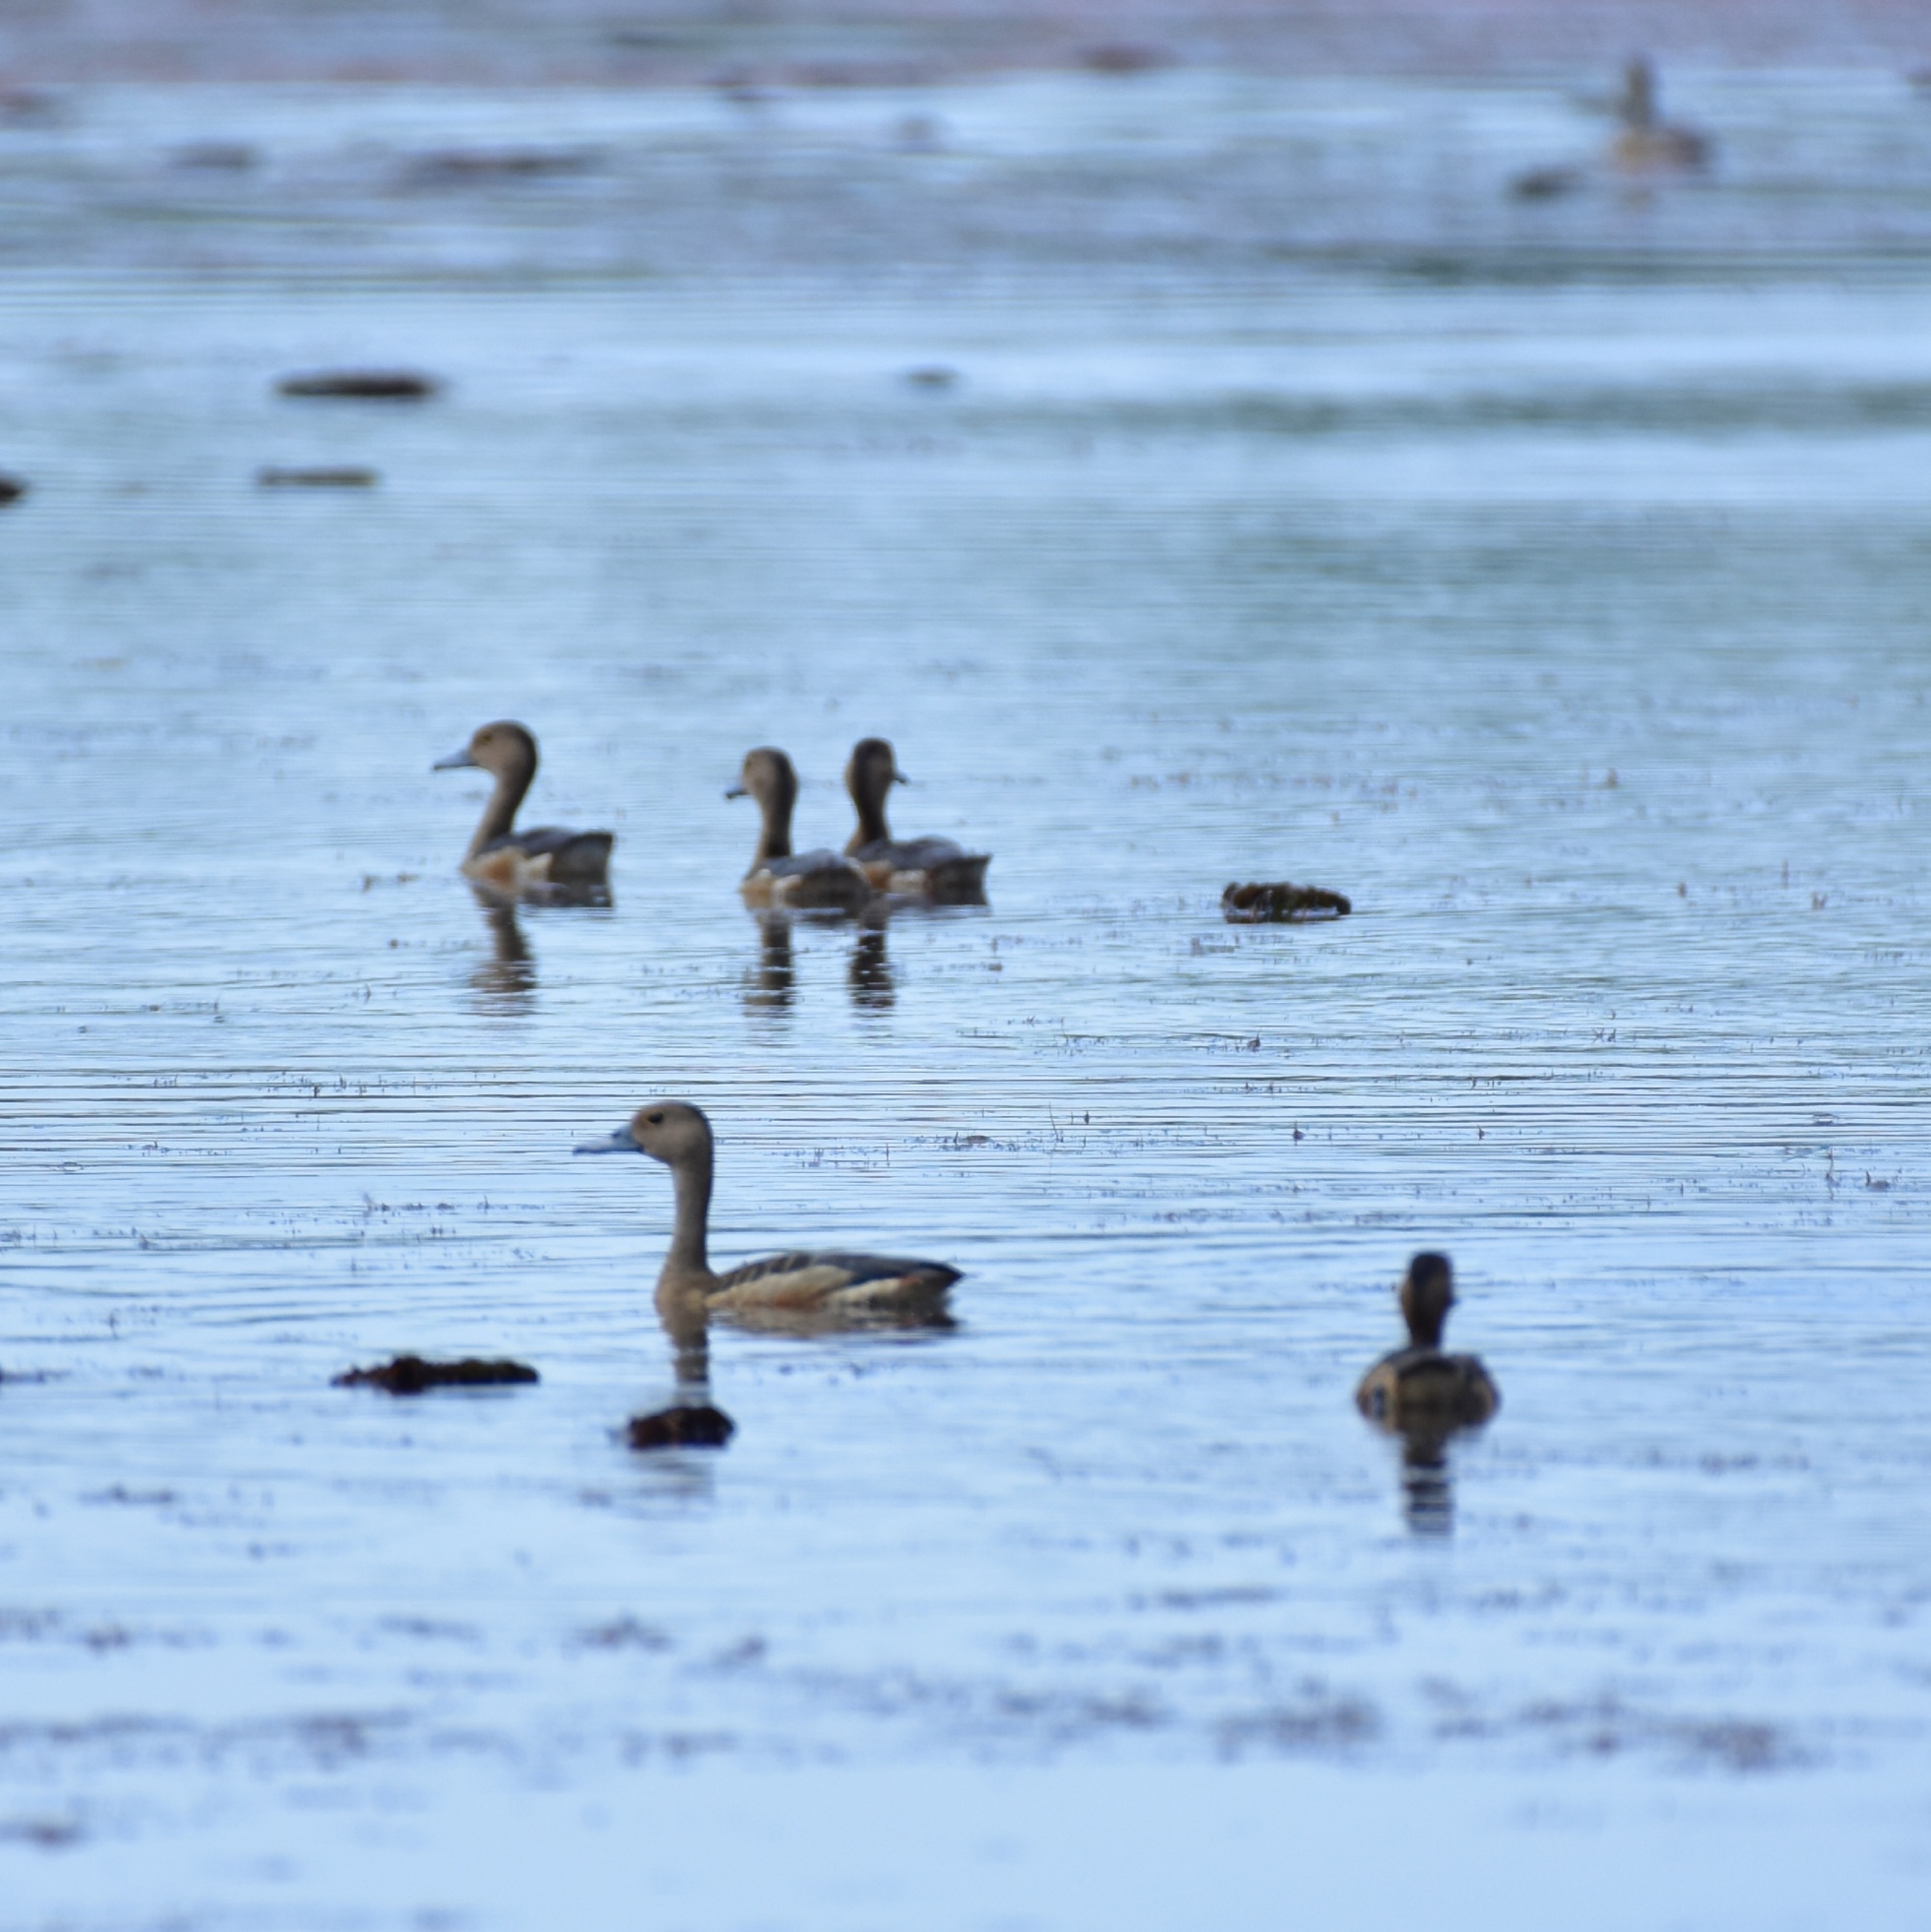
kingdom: Animalia
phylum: Chordata
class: Aves
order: Anseriformes
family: Anatidae
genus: Dendrocygna
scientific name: Dendrocygna javanica
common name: Lesser whistling-duck
